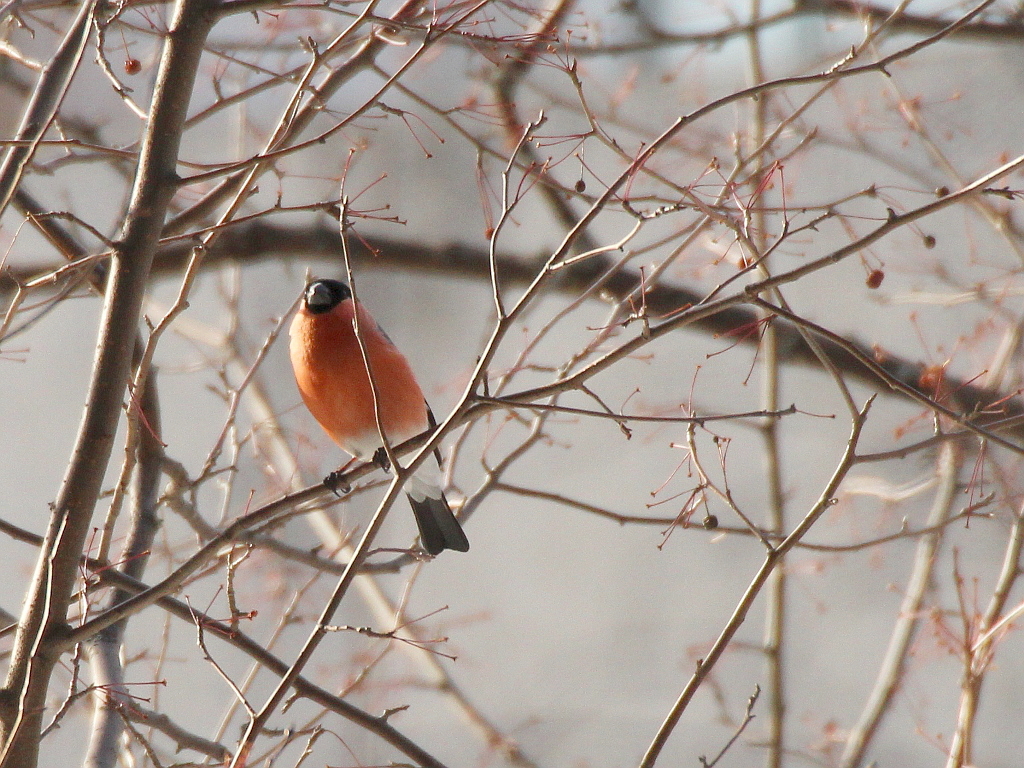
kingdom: Animalia
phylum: Chordata
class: Aves
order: Passeriformes
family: Fringillidae
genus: Pyrrhula
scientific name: Pyrrhula pyrrhula
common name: Eurasian bullfinch
